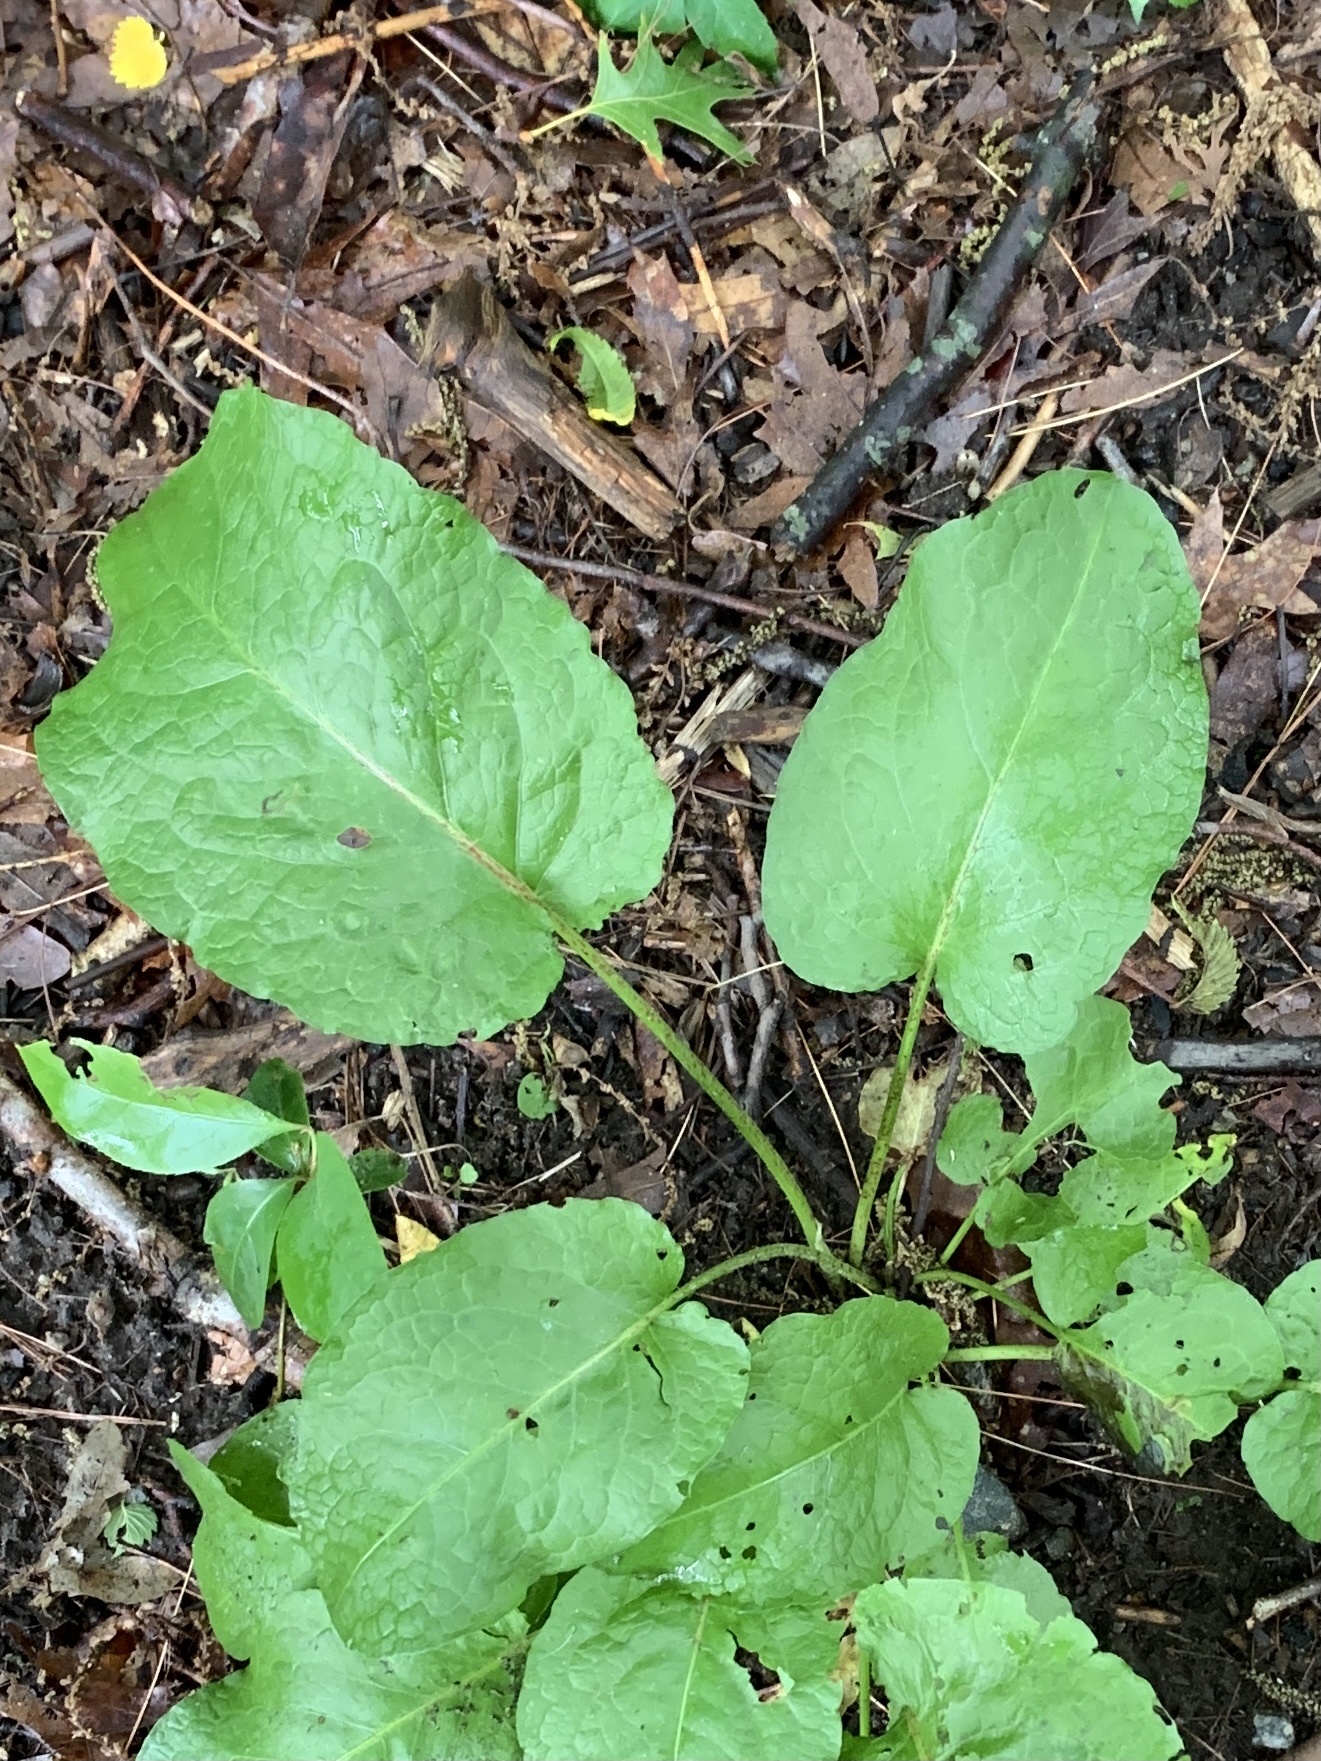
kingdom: Plantae
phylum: Tracheophyta
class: Magnoliopsida
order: Caryophyllales
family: Polygonaceae
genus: Rumex
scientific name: Rumex obtusifolius
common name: Bitter dock
